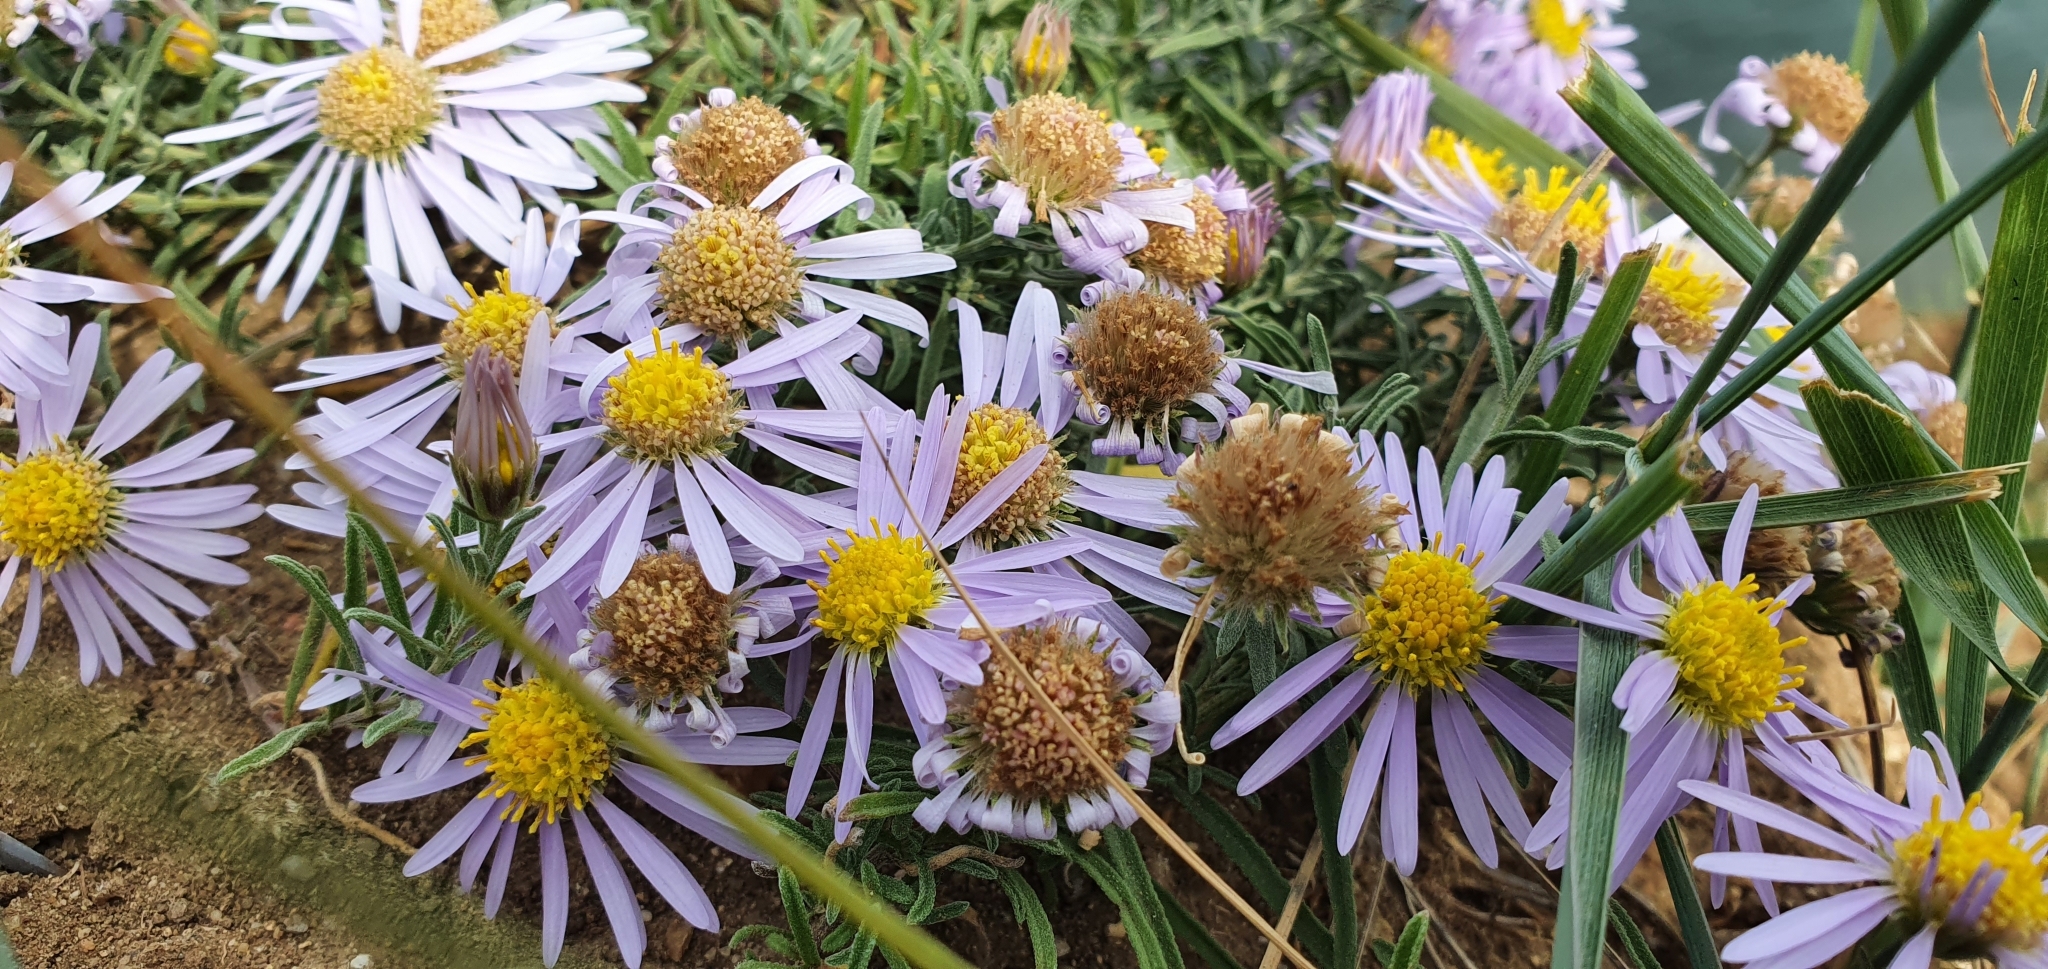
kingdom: Plantae
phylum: Tracheophyta
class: Magnoliopsida
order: Asterales
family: Asteraceae
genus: Heteropappus
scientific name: Heteropappus altaicus
